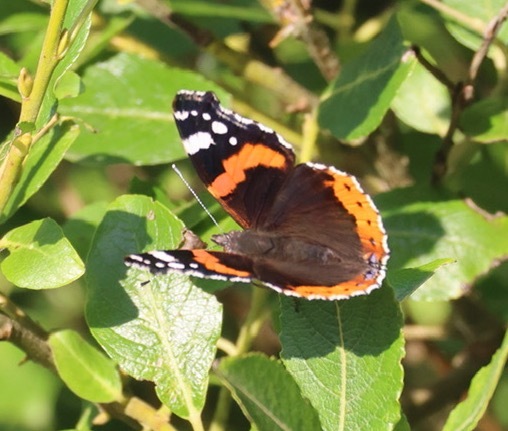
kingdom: Animalia
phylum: Arthropoda
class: Insecta
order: Lepidoptera
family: Nymphalidae
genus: Vanessa
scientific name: Vanessa atalanta
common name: Red admiral
